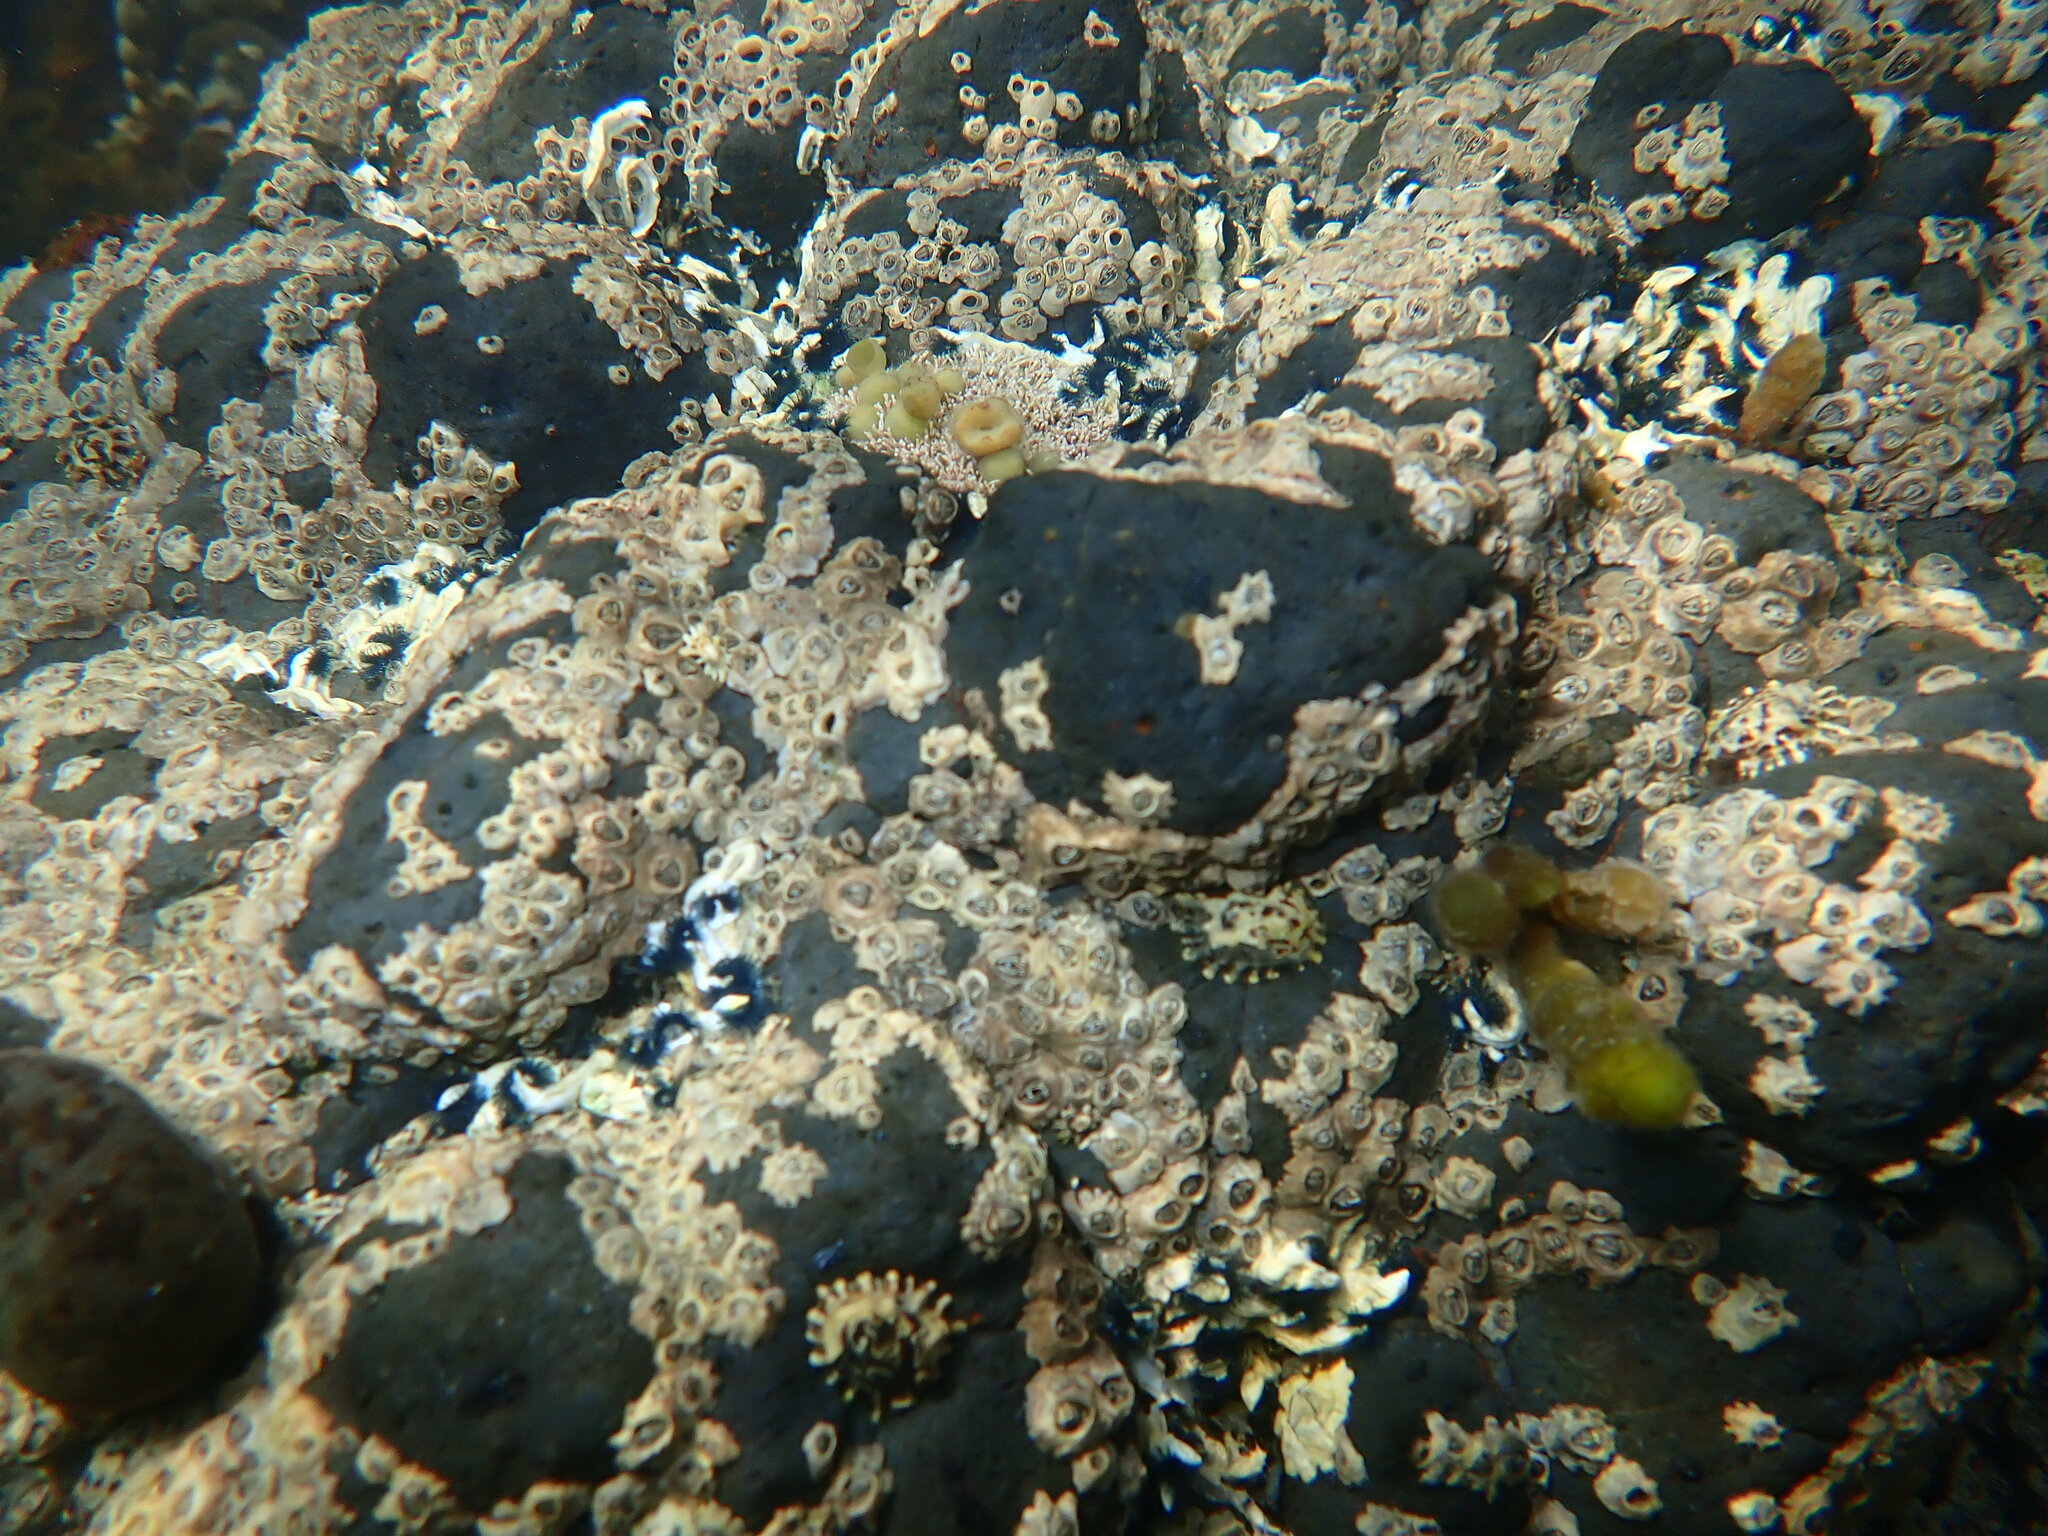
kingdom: Animalia
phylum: Mollusca
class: Gastropoda
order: Siphonariida
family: Siphonariidae
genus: Siphonaria
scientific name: Siphonaria australis
